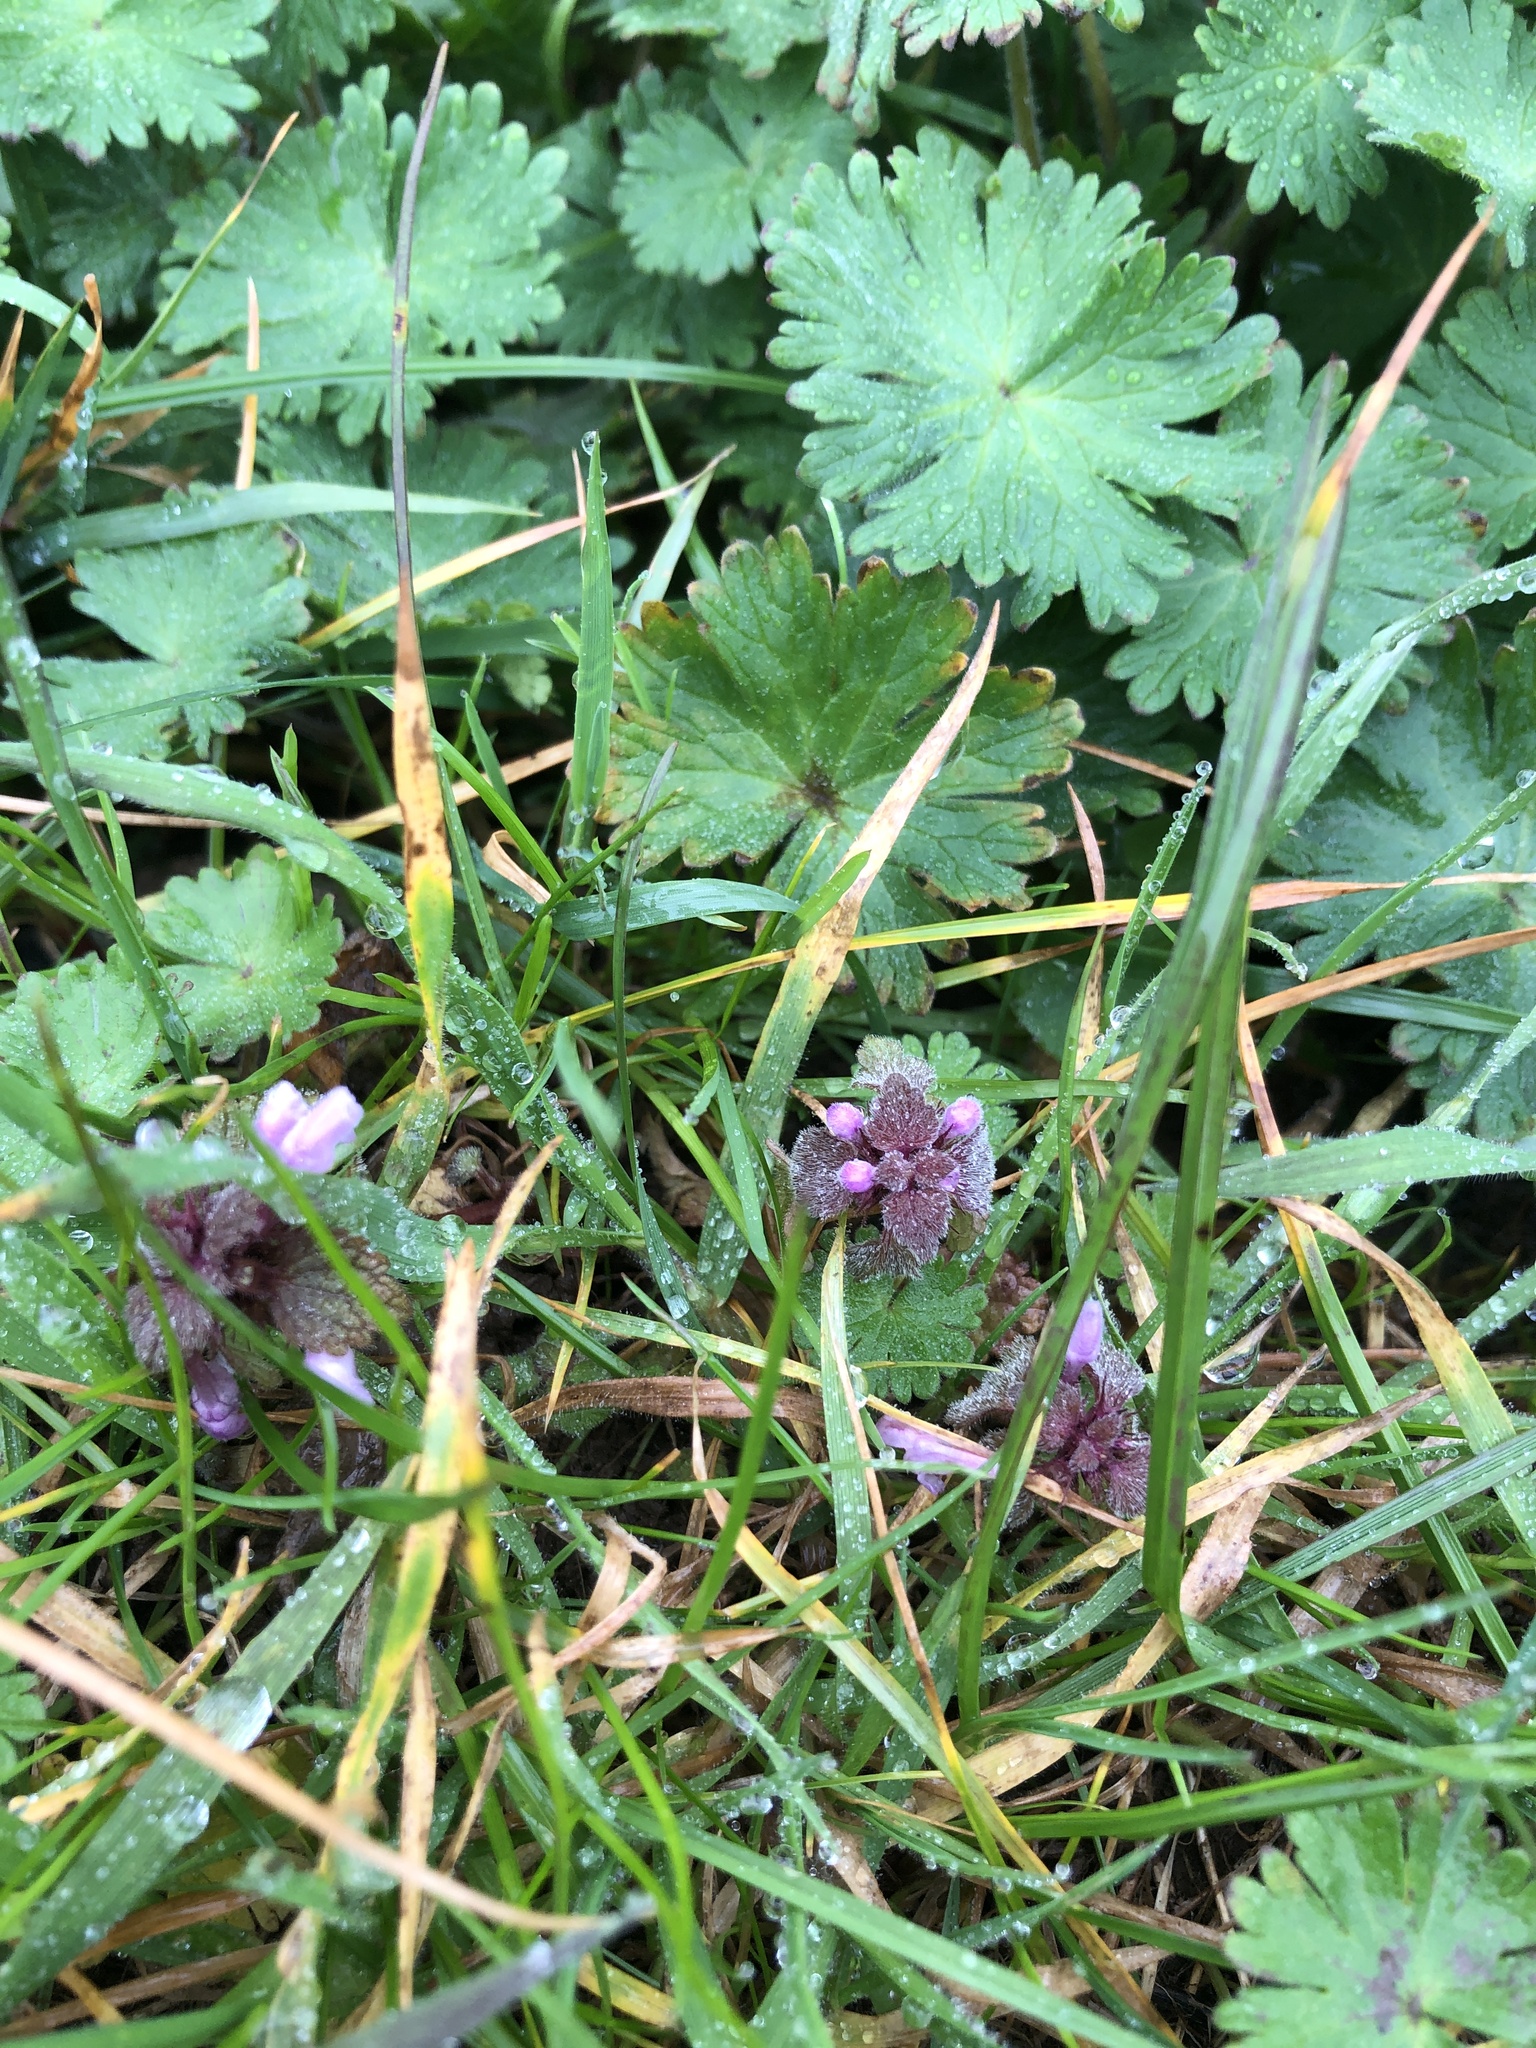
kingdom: Plantae
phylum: Tracheophyta
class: Magnoliopsida
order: Lamiales
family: Lamiaceae
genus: Lamium
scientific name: Lamium purpureum
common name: Red dead-nettle
